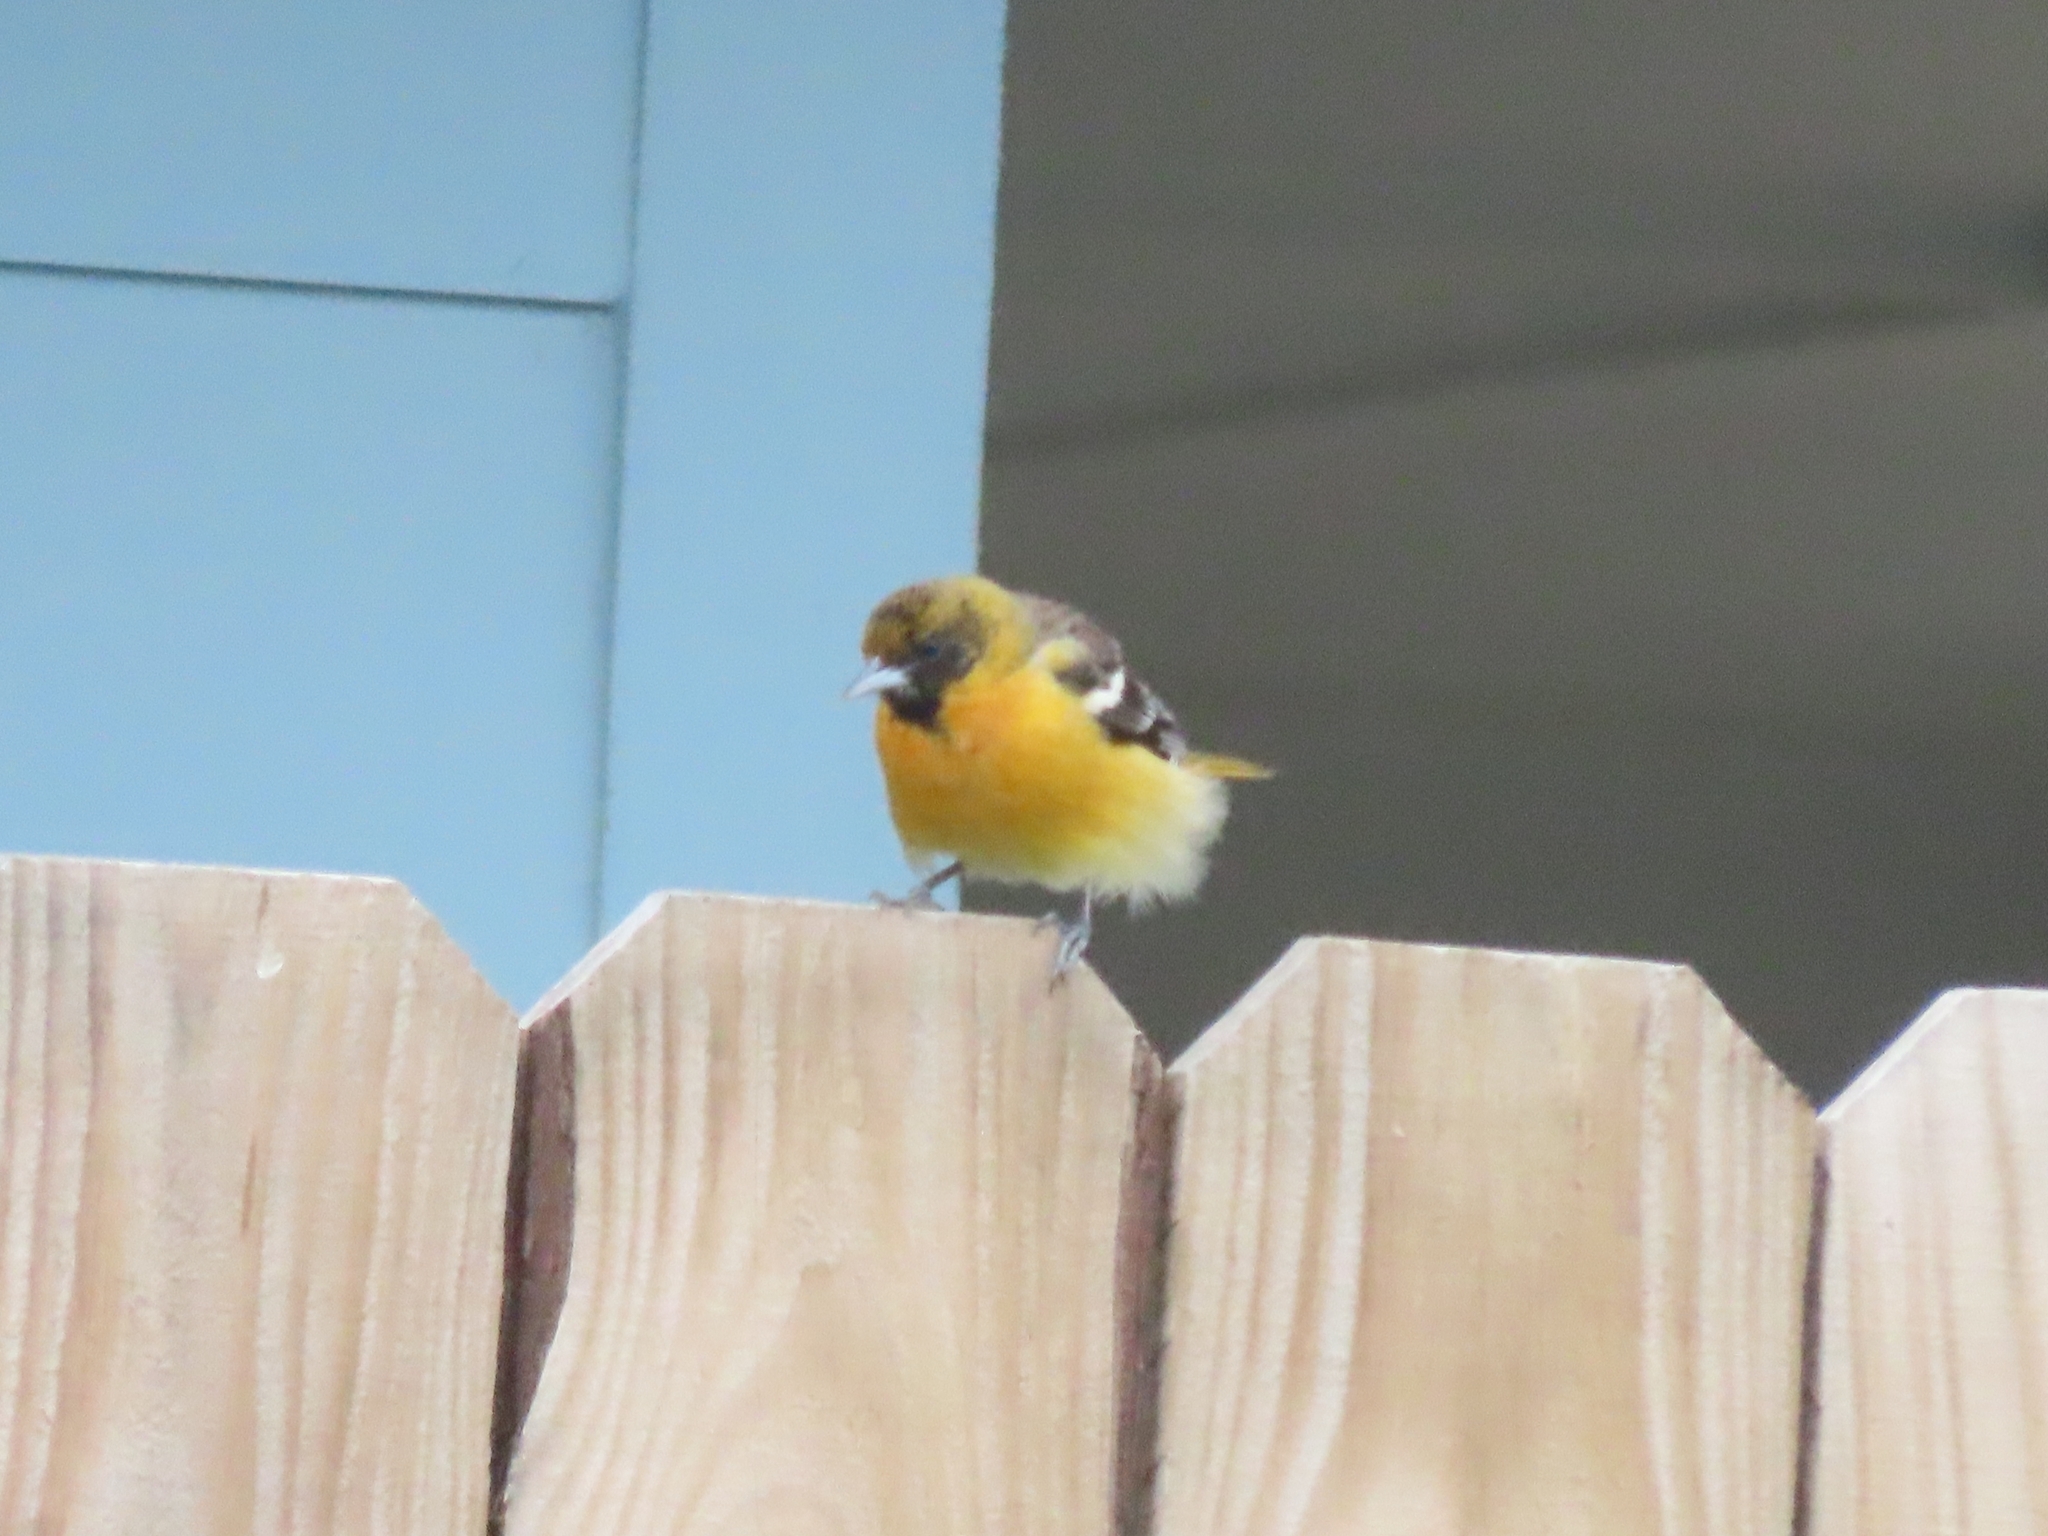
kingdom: Animalia
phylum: Chordata
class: Aves
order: Passeriformes
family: Icteridae
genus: Icterus
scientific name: Icterus galbula
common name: Baltimore oriole
